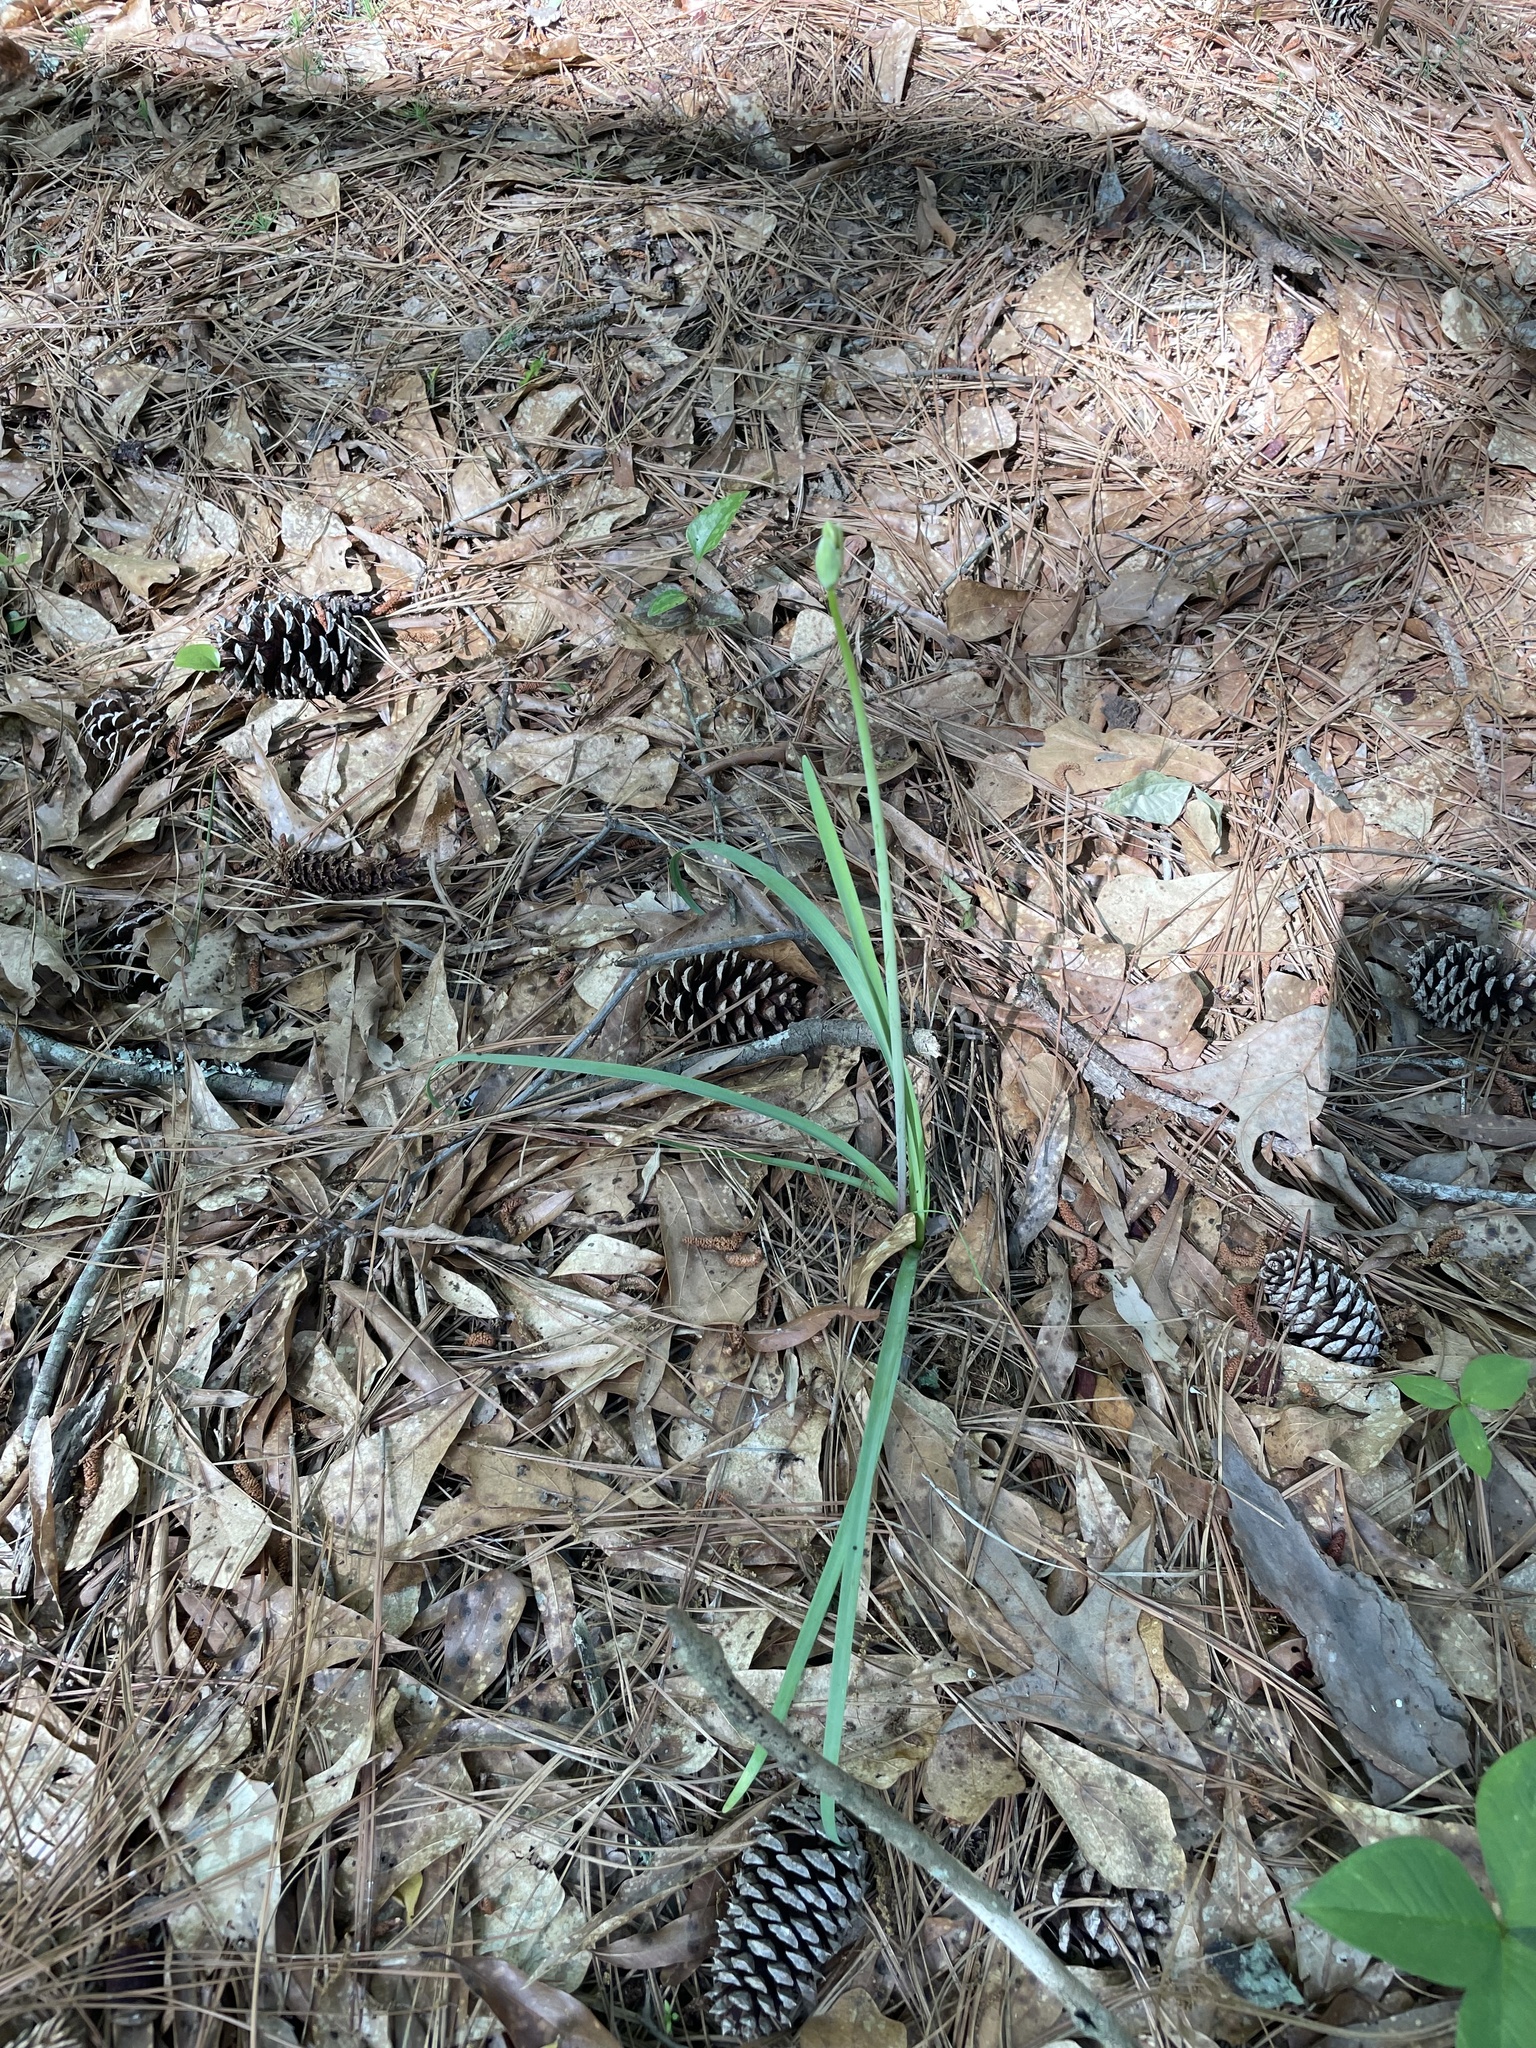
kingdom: Plantae
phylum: Tracheophyta
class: Liliopsida
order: Asparagales
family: Amaryllidaceae
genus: Nothoscordum
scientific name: Nothoscordum gracile
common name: Slender false garlic
